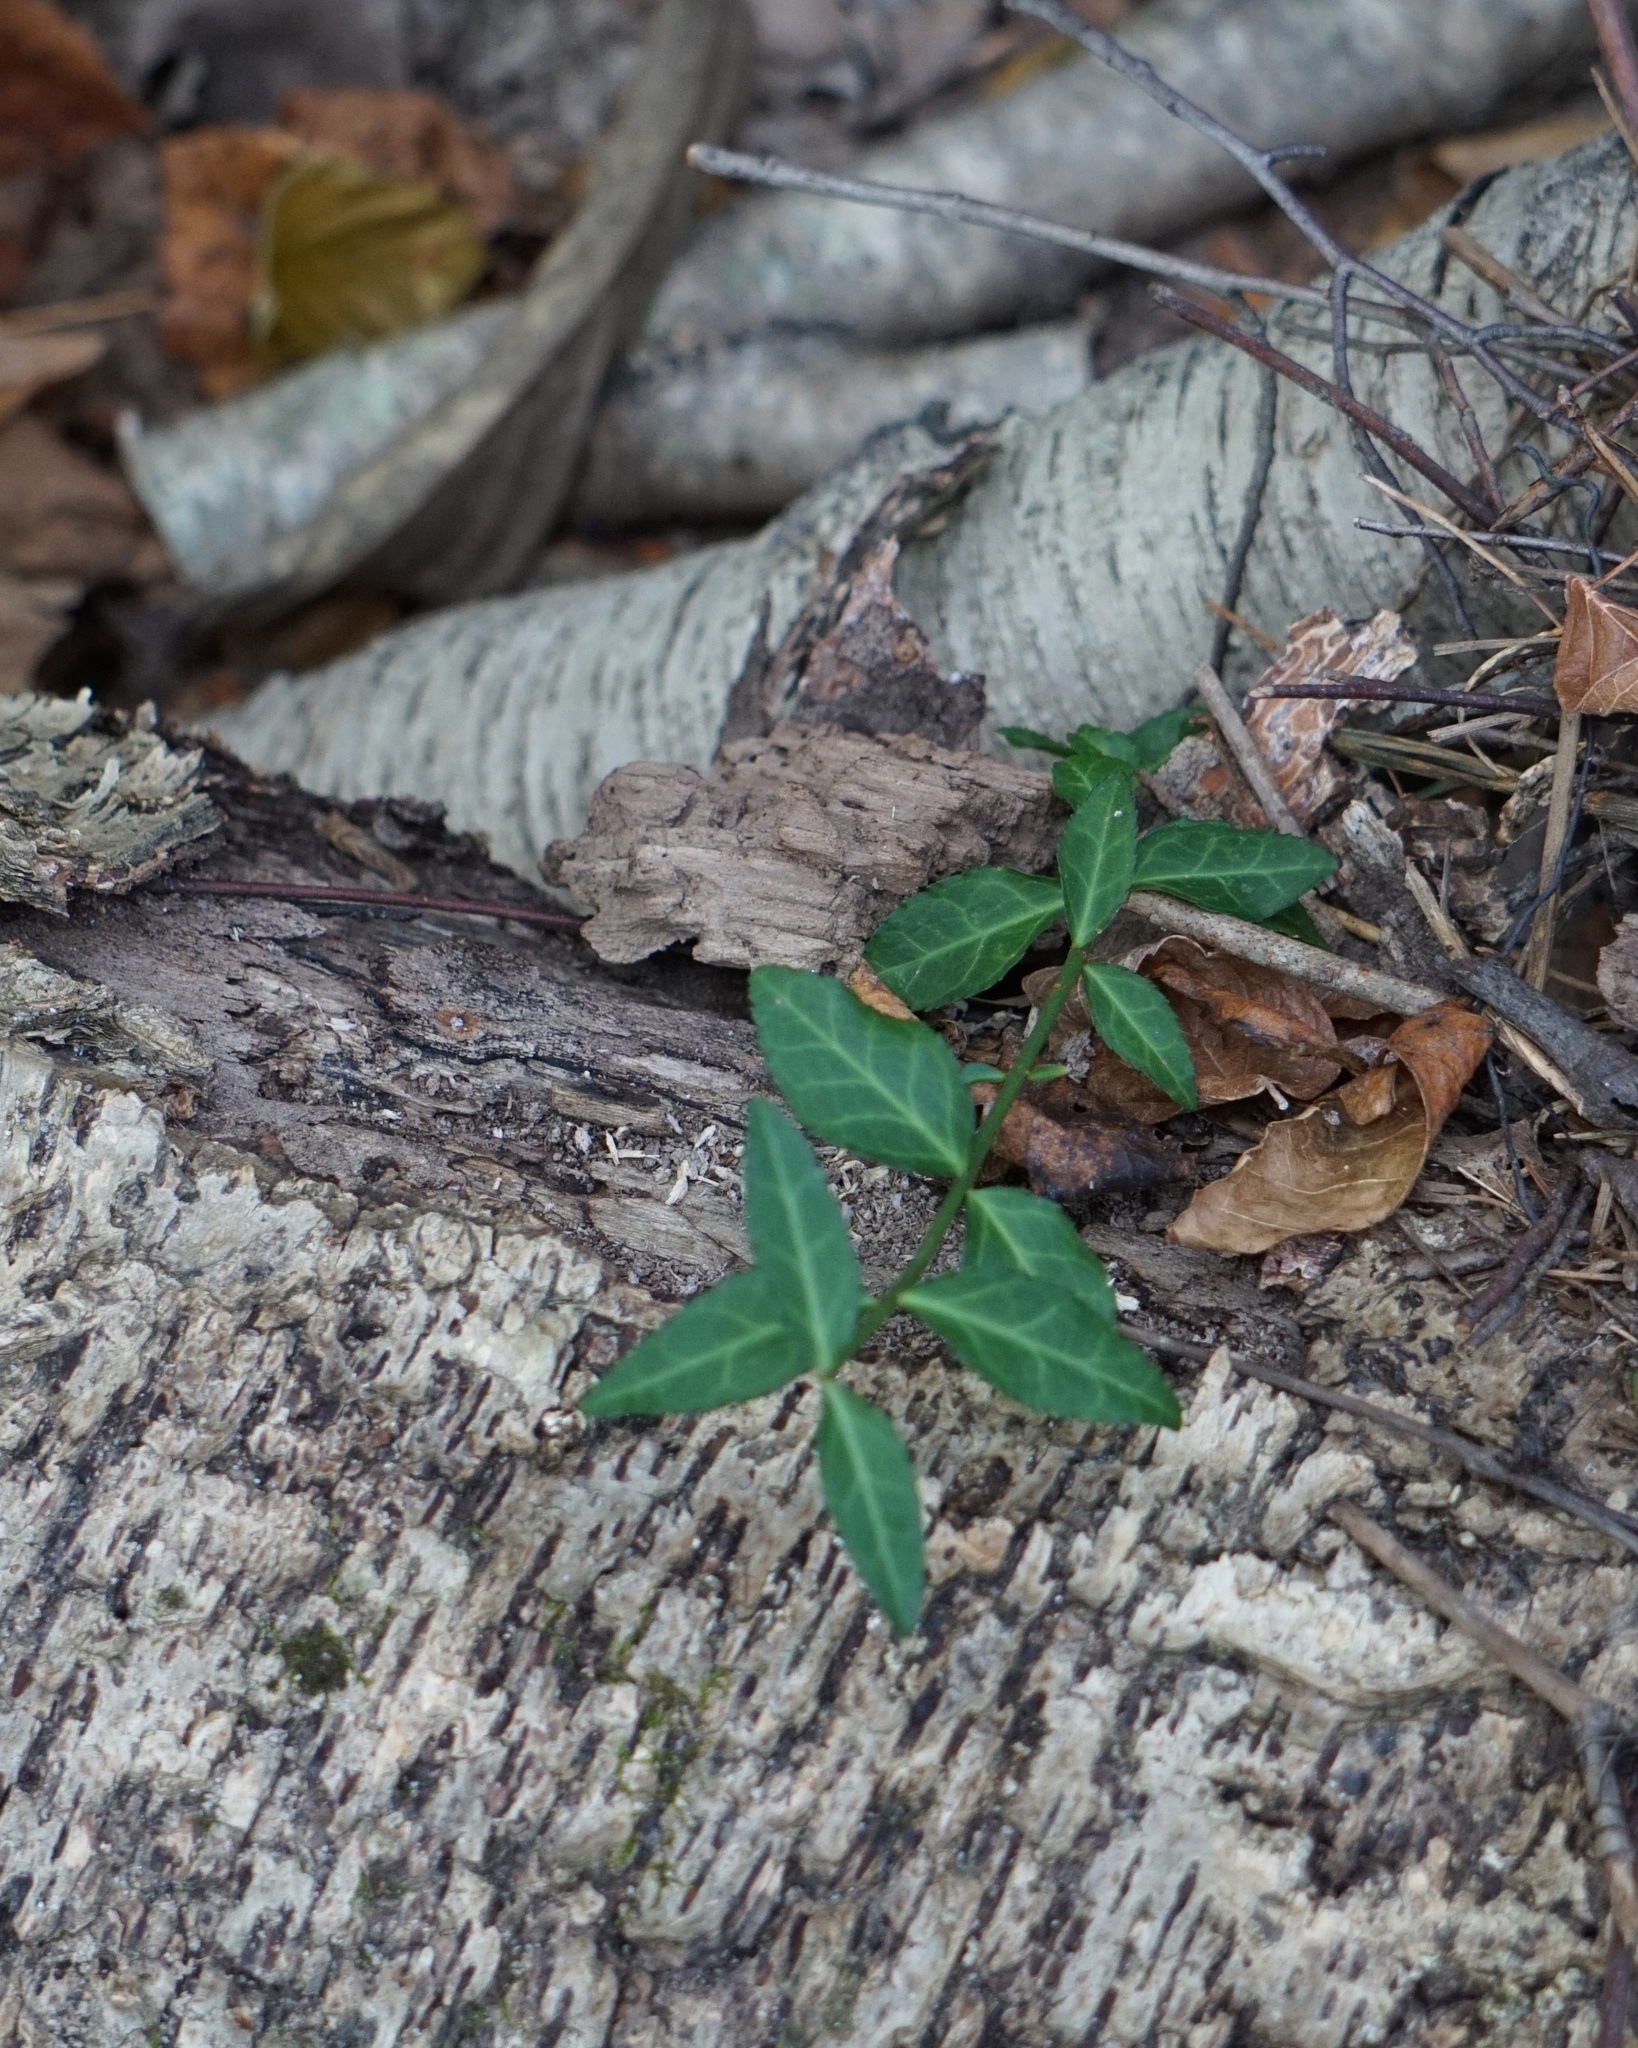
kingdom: Plantae
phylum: Tracheophyta
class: Magnoliopsida
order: Celastrales
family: Celastraceae
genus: Euonymus
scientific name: Euonymus fortunei
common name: Climbing euonymus
